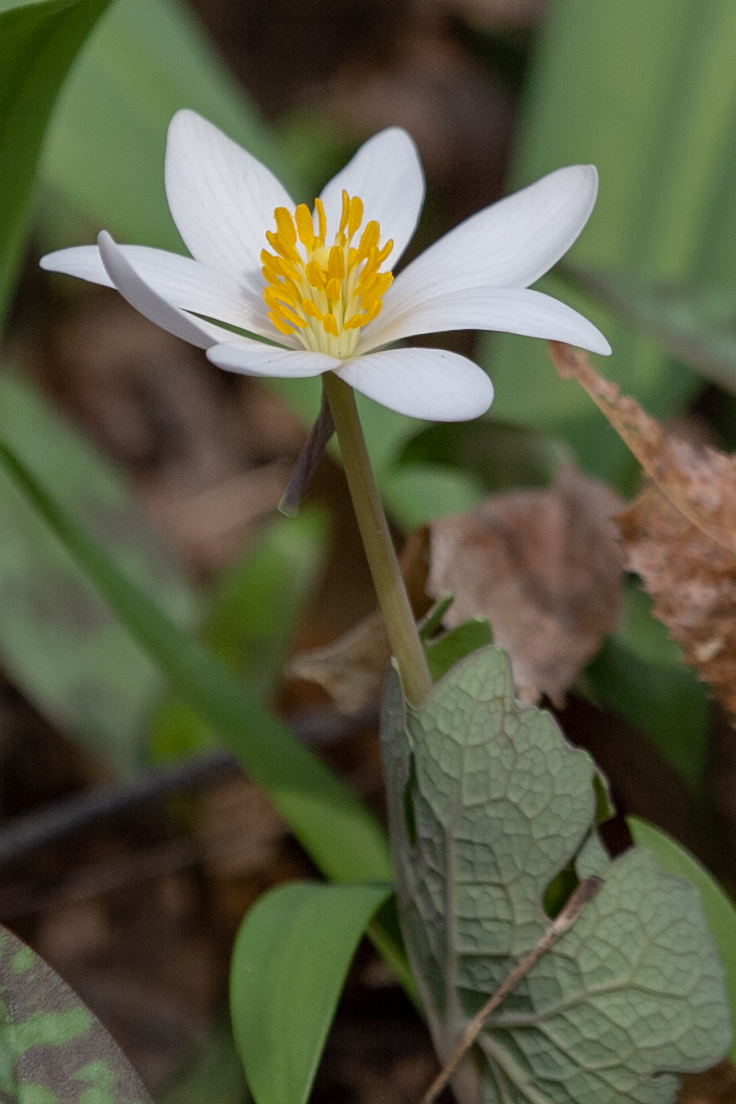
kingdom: Plantae
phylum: Tracheophyta
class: Magnoliopsida
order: Ranunculales
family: Papaveraceae
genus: Sanguinaria
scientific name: Sanguinaria canadensis
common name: Bloodroot
